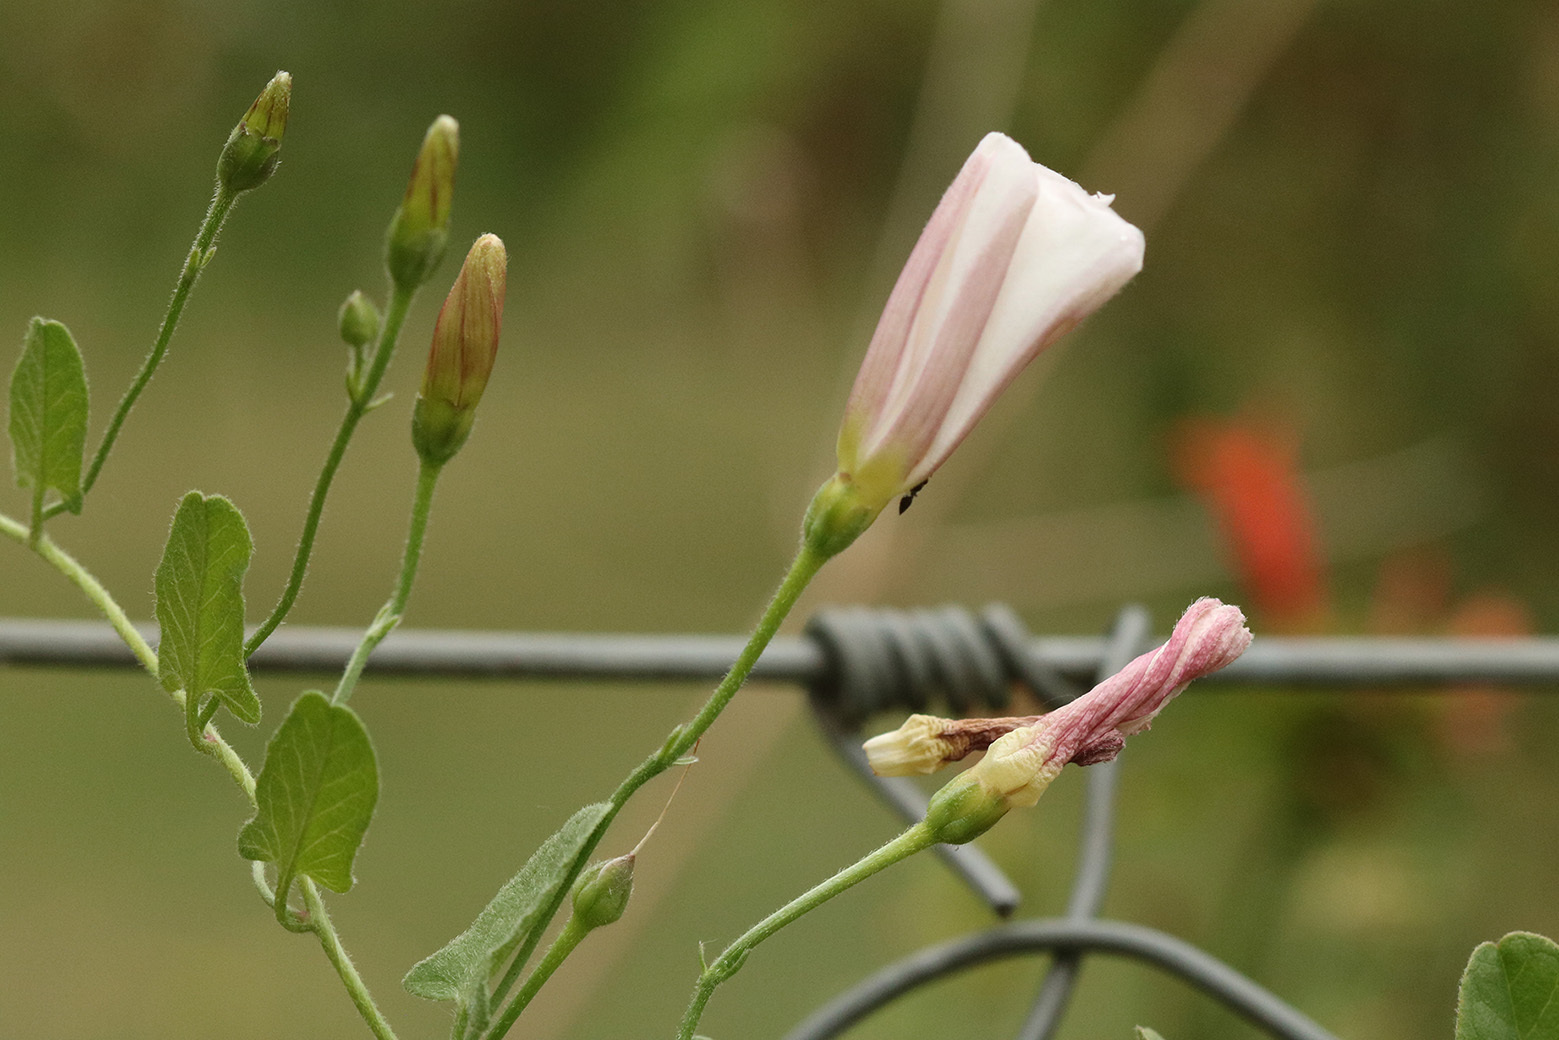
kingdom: Plantae
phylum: Tracheophyta
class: Magnoliopsida
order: Solanales
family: Convolvulaceae
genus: Convolvulus
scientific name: Convolvulus arvensis
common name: Field bindweed
